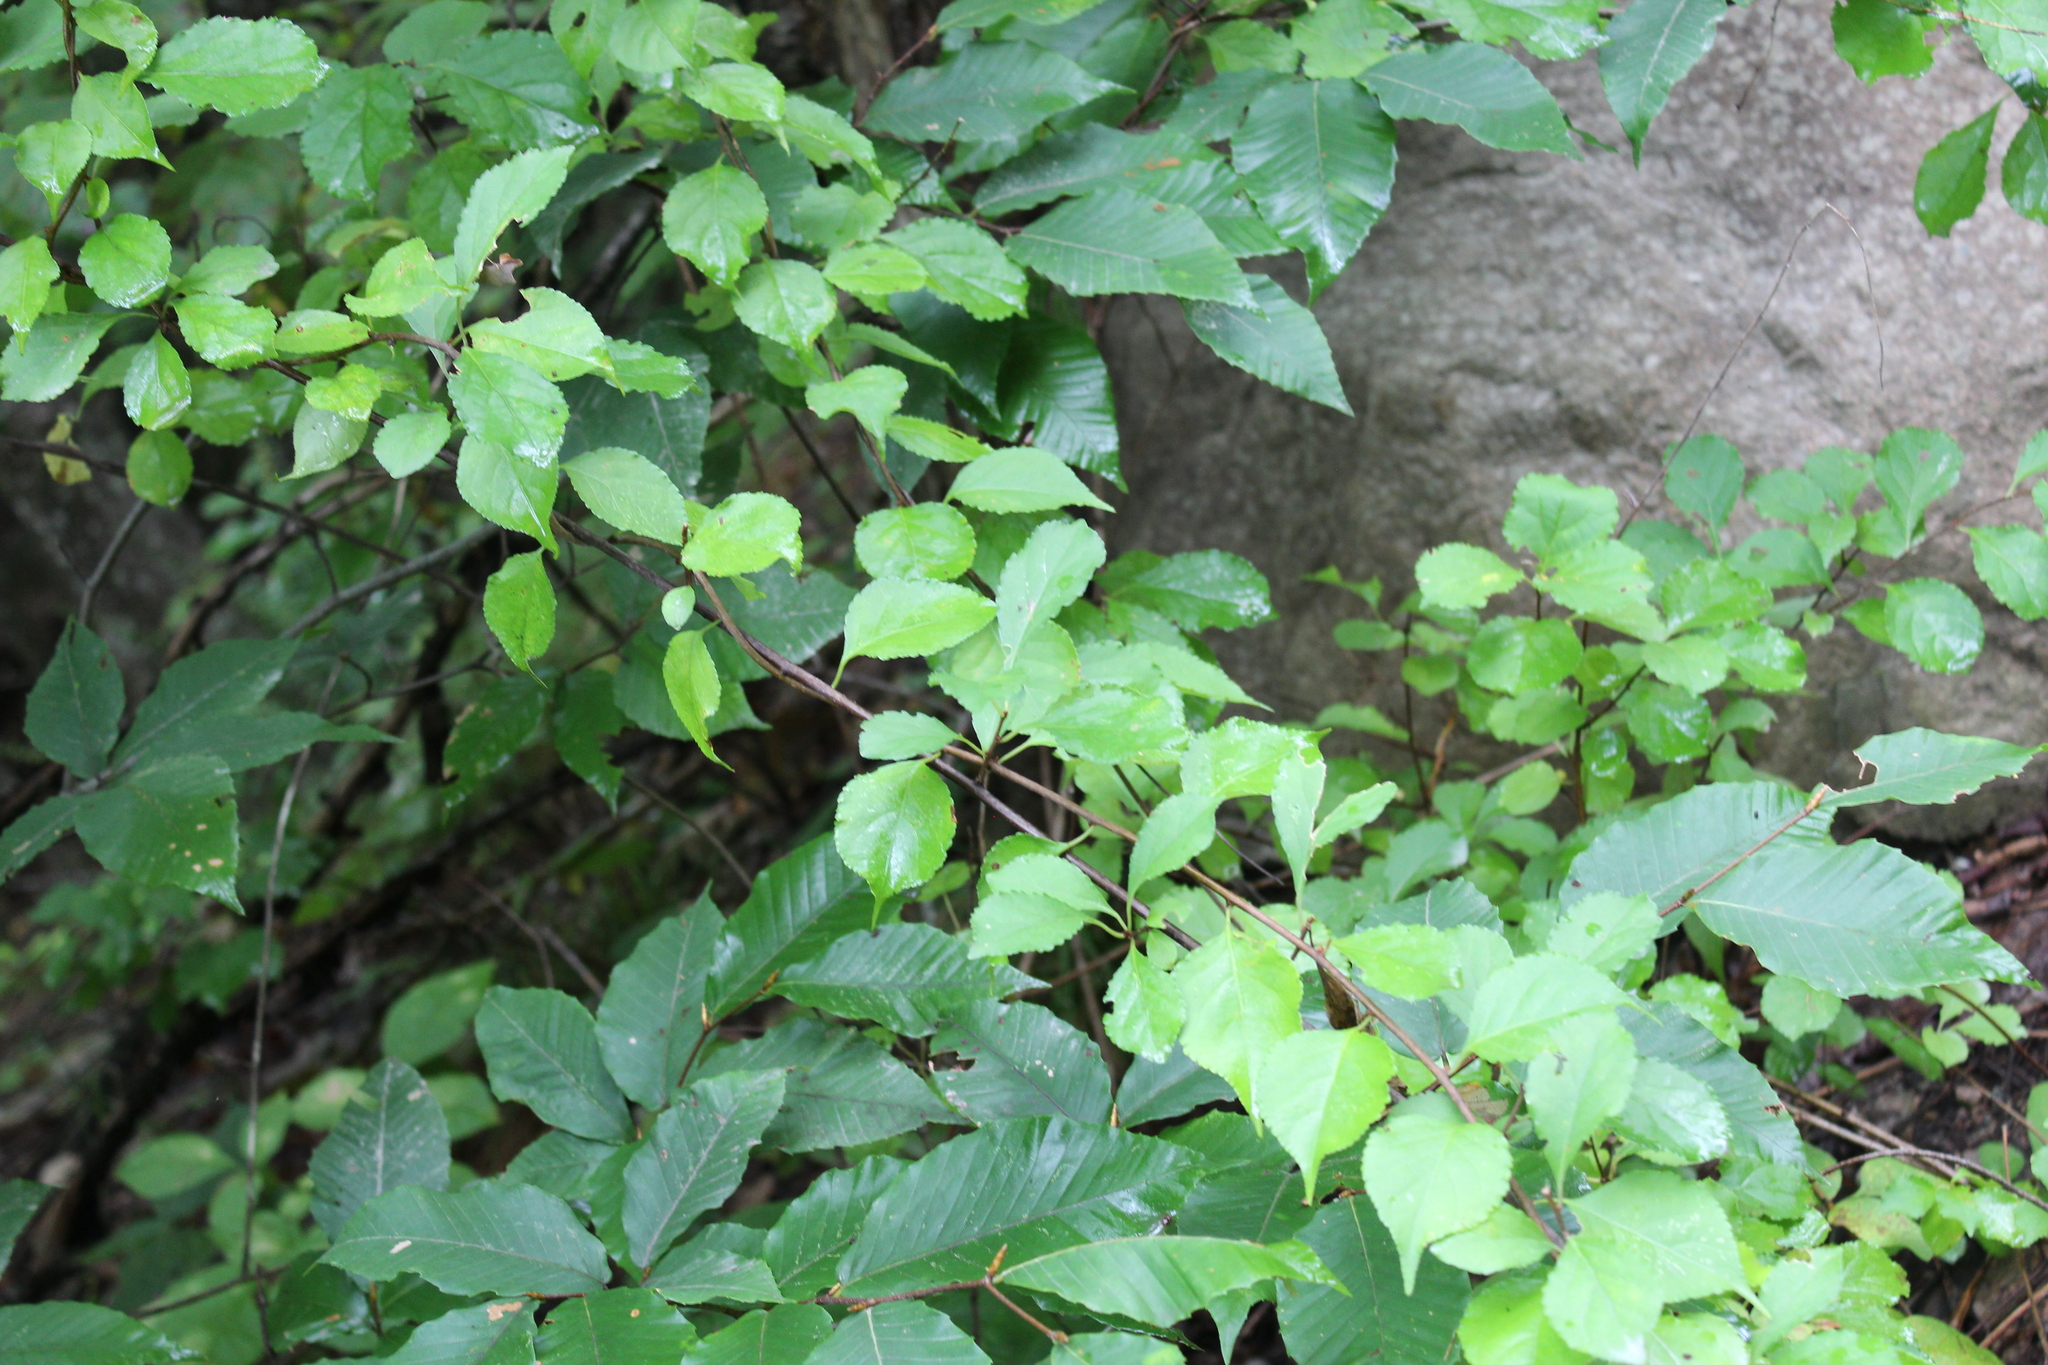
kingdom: Plantae
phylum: Tracheophyta
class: Magnoliopsida
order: Celastrales
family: Celastraceae
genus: Celastrus
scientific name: Celastrus orbiculatus
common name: Oriental bittersweet
